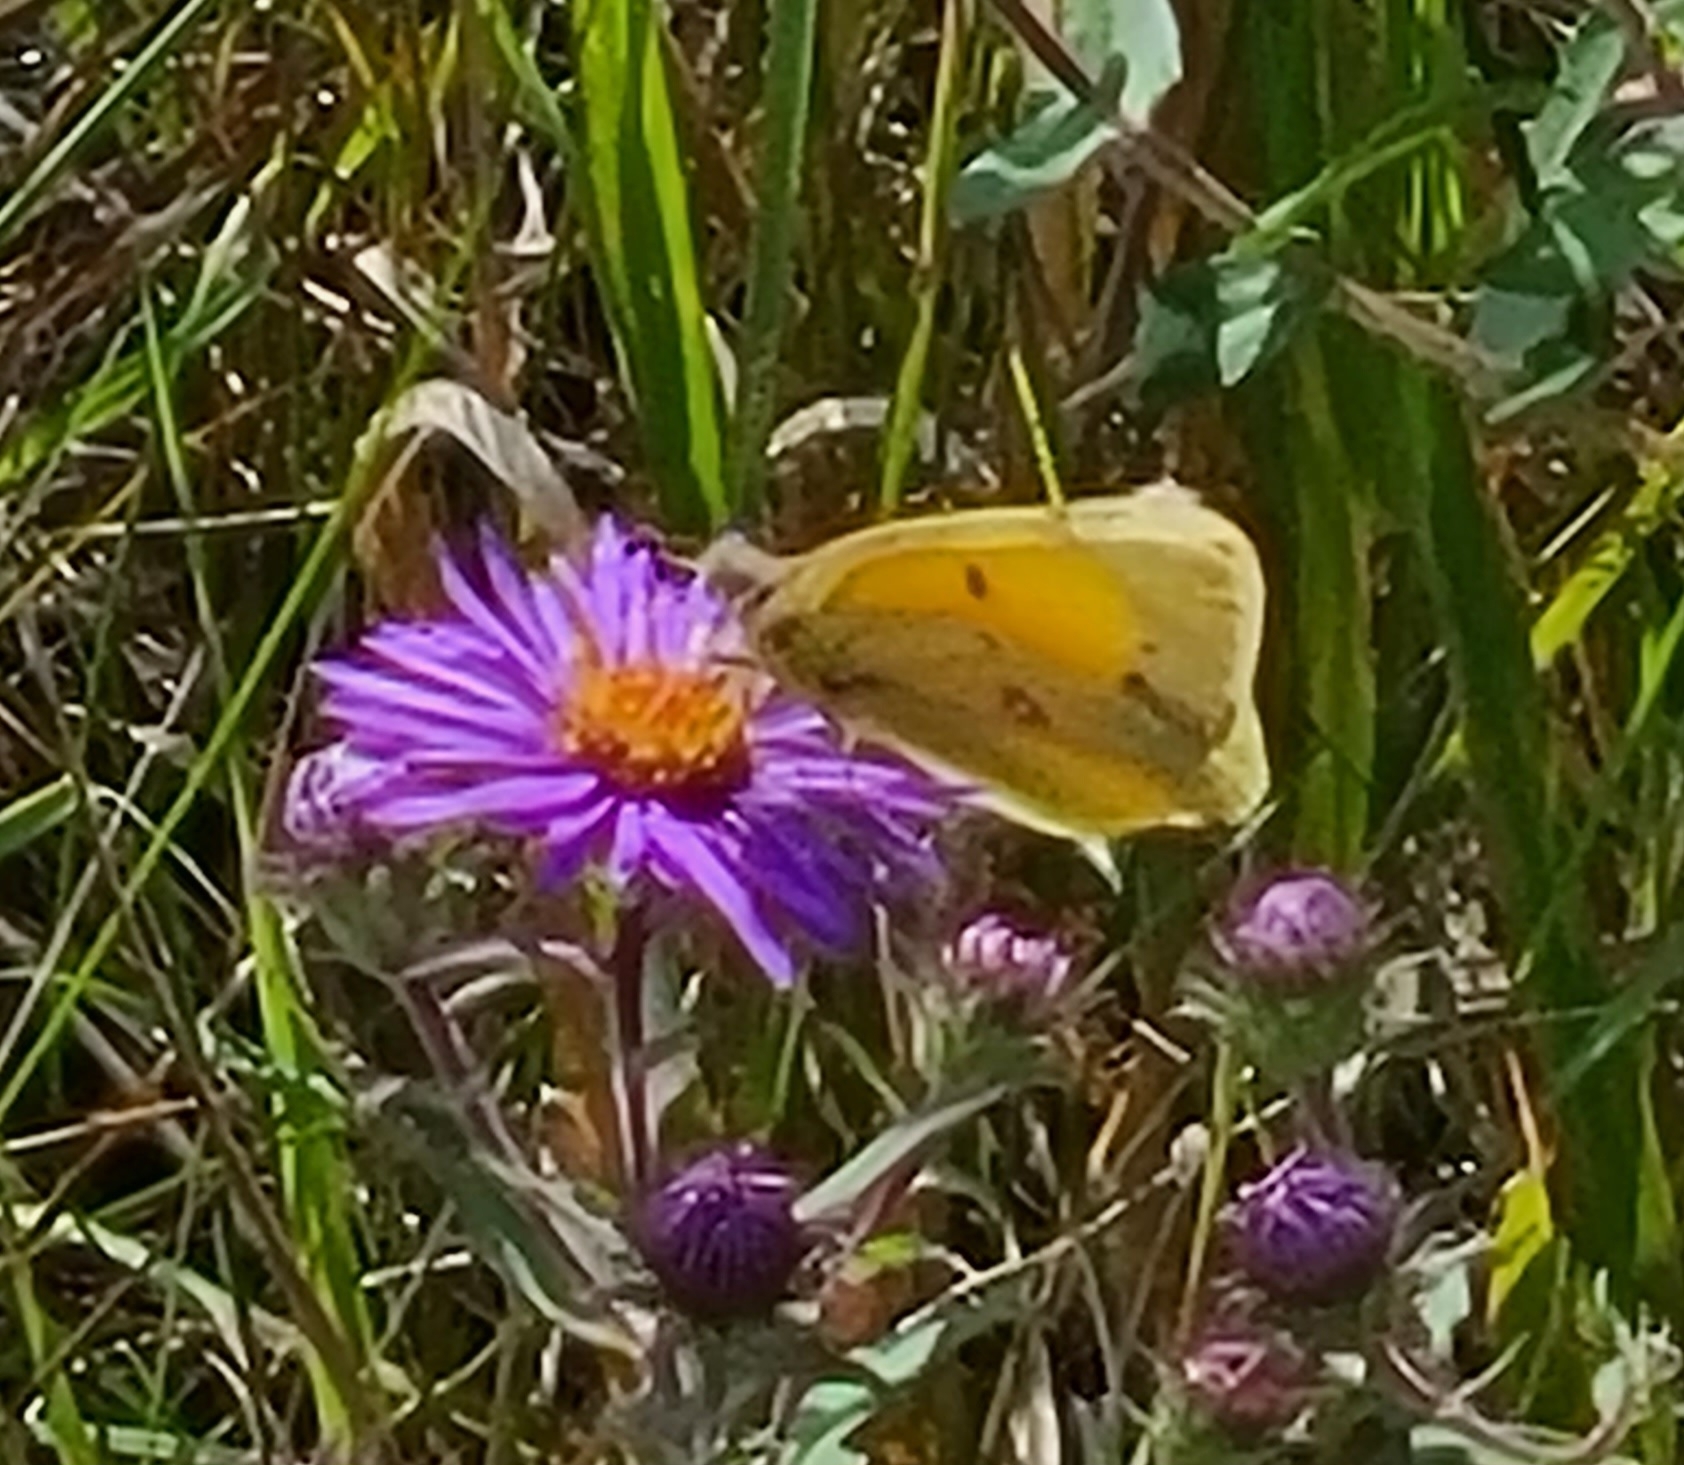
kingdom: Animalia
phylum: Arthropoda
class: Insecta
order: Lepidoptera
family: Pieridae
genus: Colias
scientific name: Colias eurytheme
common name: Alfalfa butterfly
